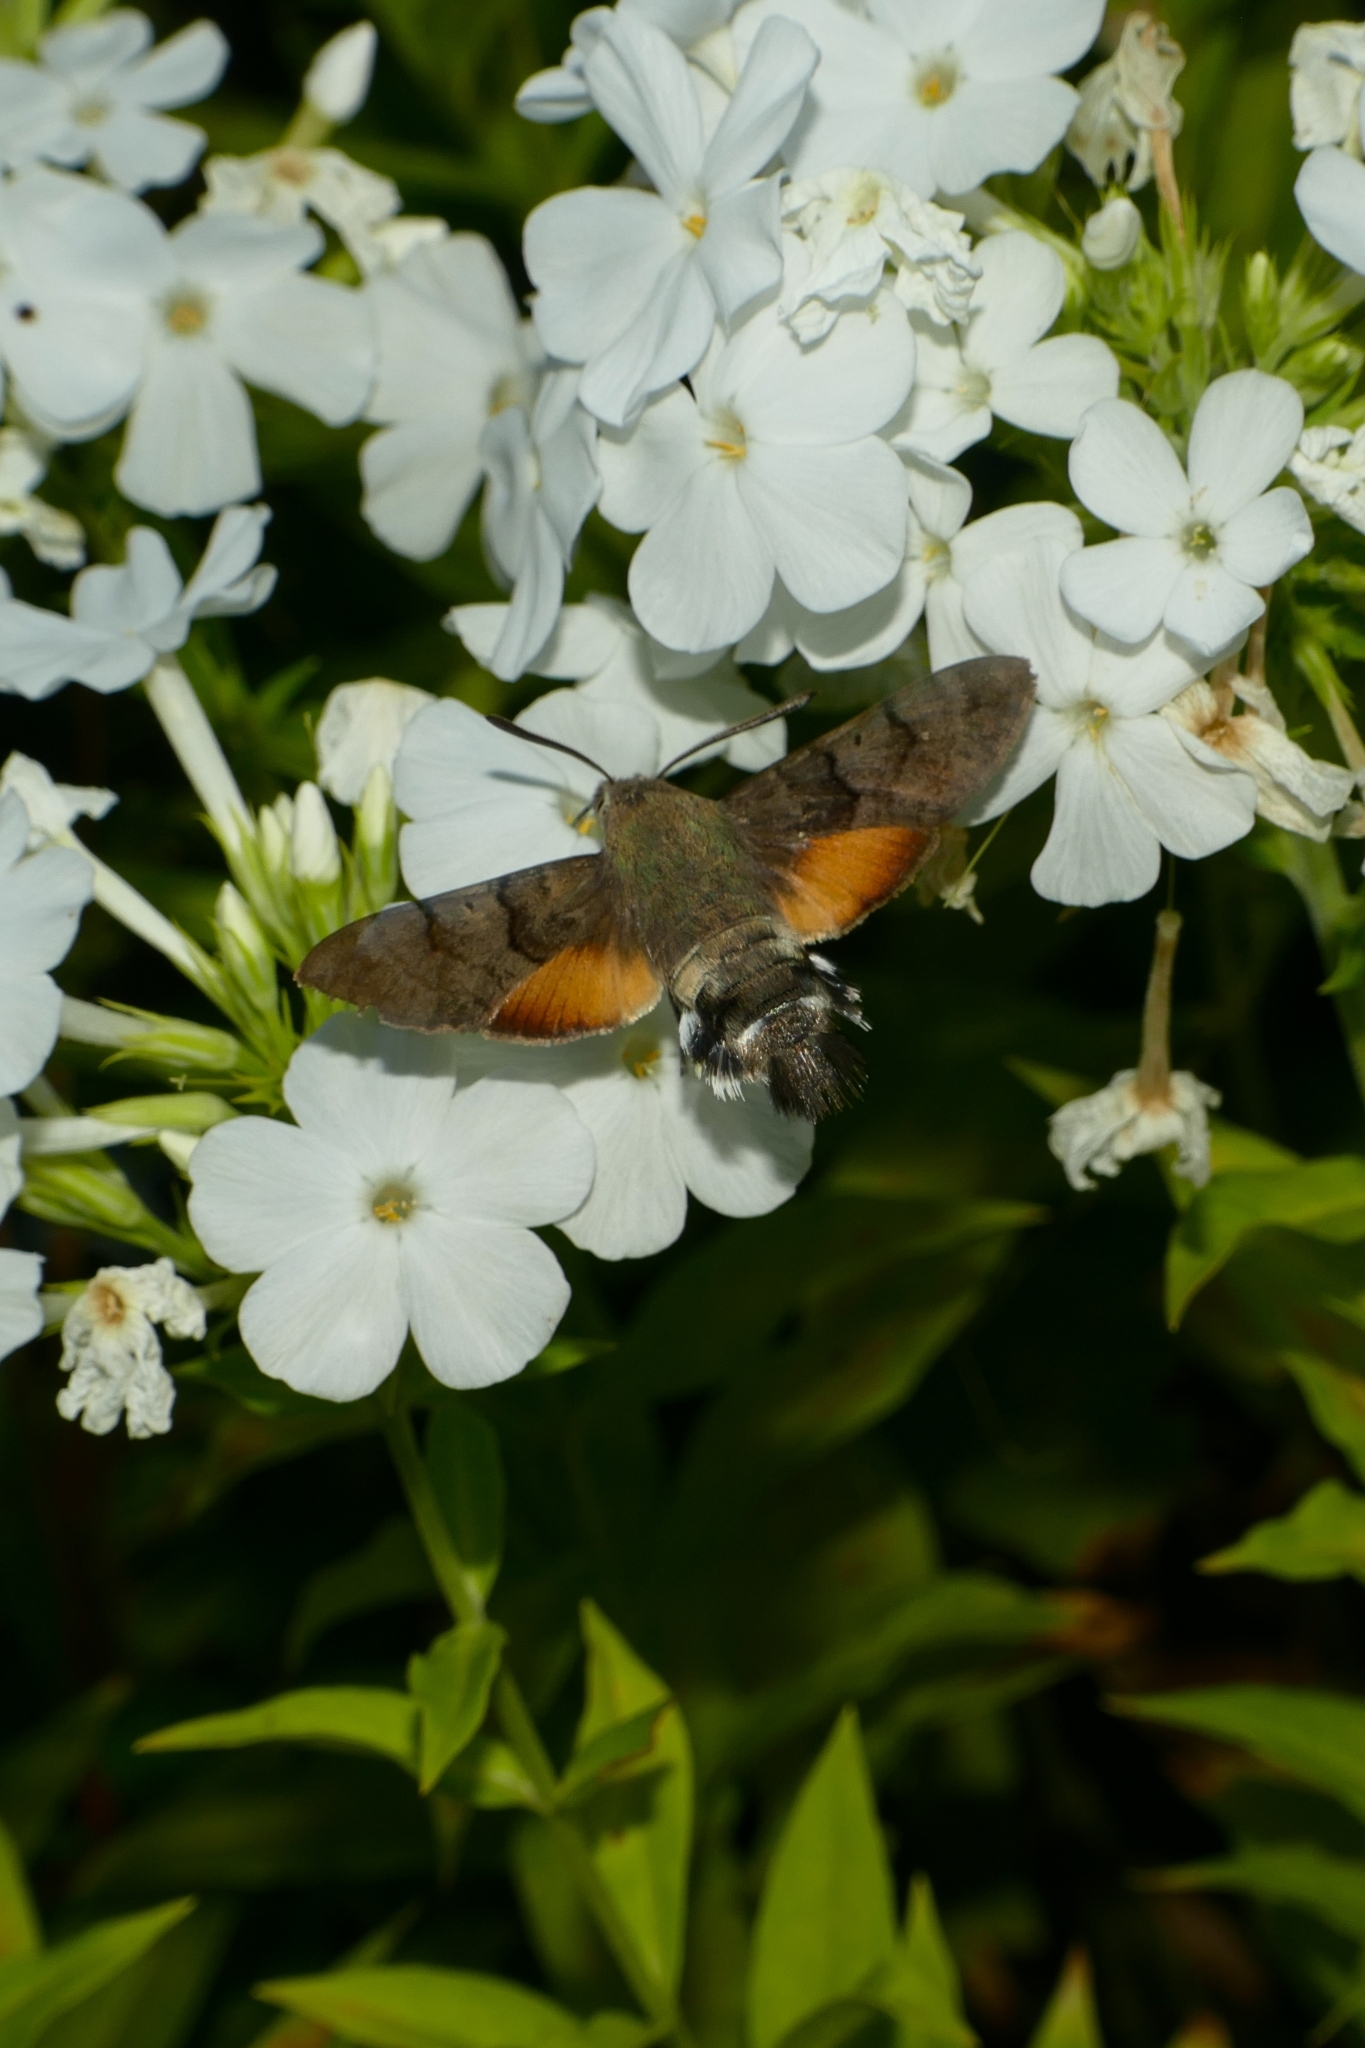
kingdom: Animalia
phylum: Arthropoda
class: Insecta
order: Lepidoptera
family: Sphingidae
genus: Macroglossum
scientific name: Macroglossum stellatarum
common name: Humming-bird hawk-moth
